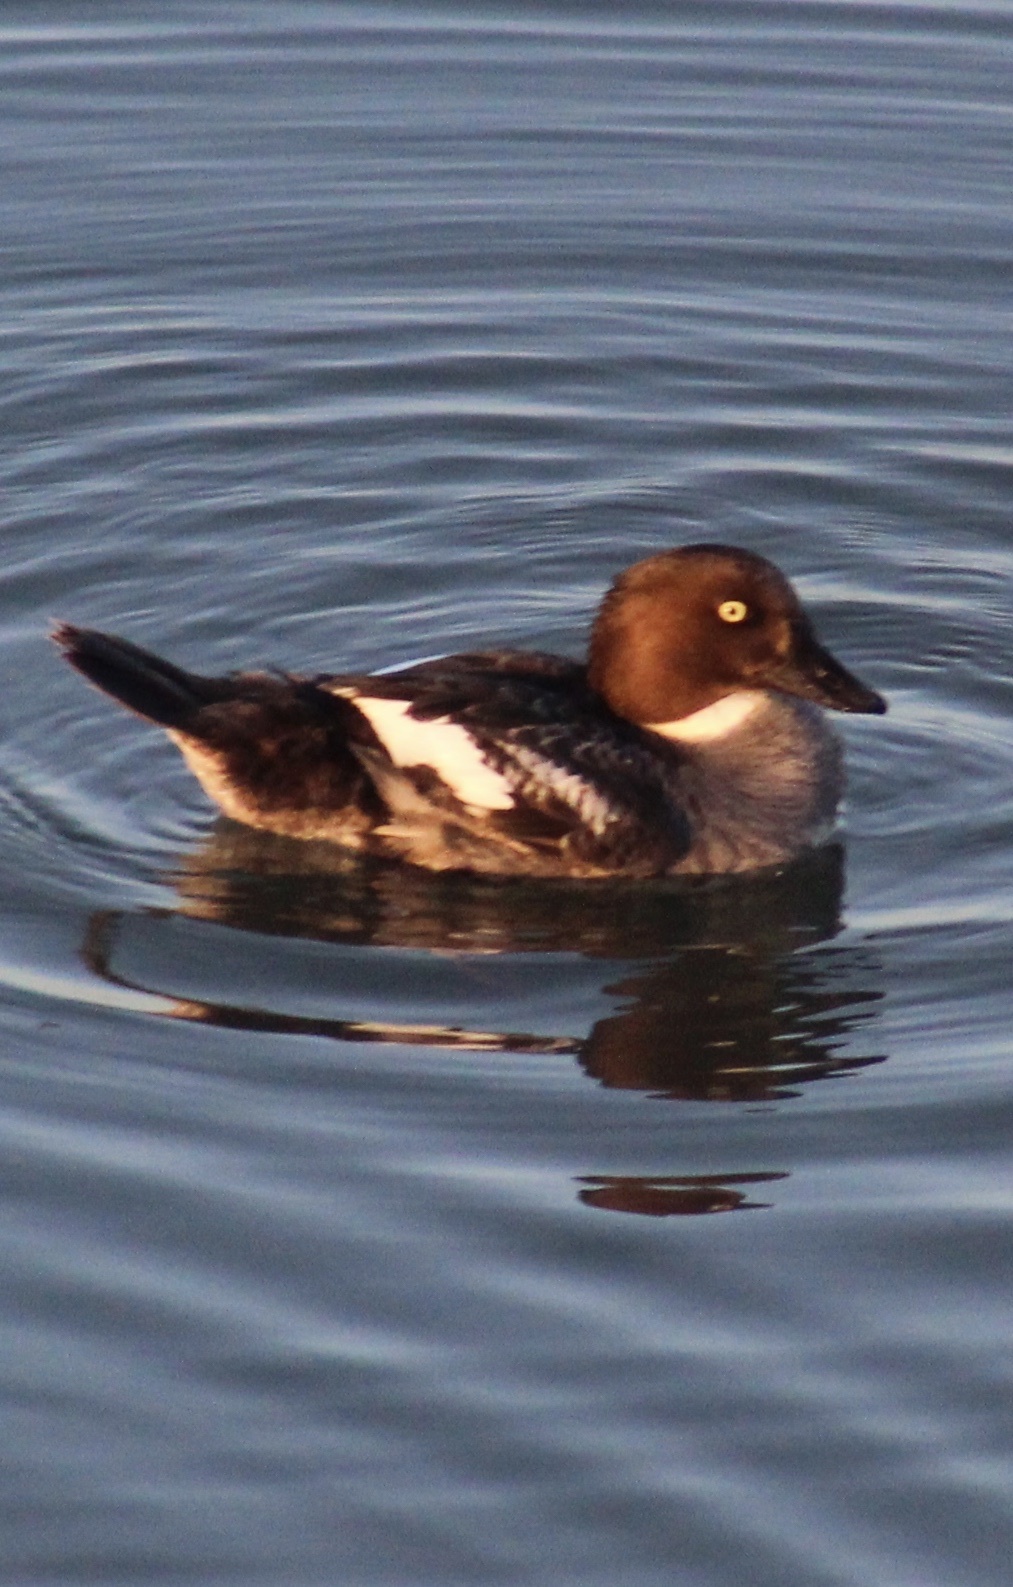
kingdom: Animalia
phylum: Chordata
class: Aves
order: Anseriformes
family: Anatidae
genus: Bucephala
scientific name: Bucephala clangula
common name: Common goldeneye
